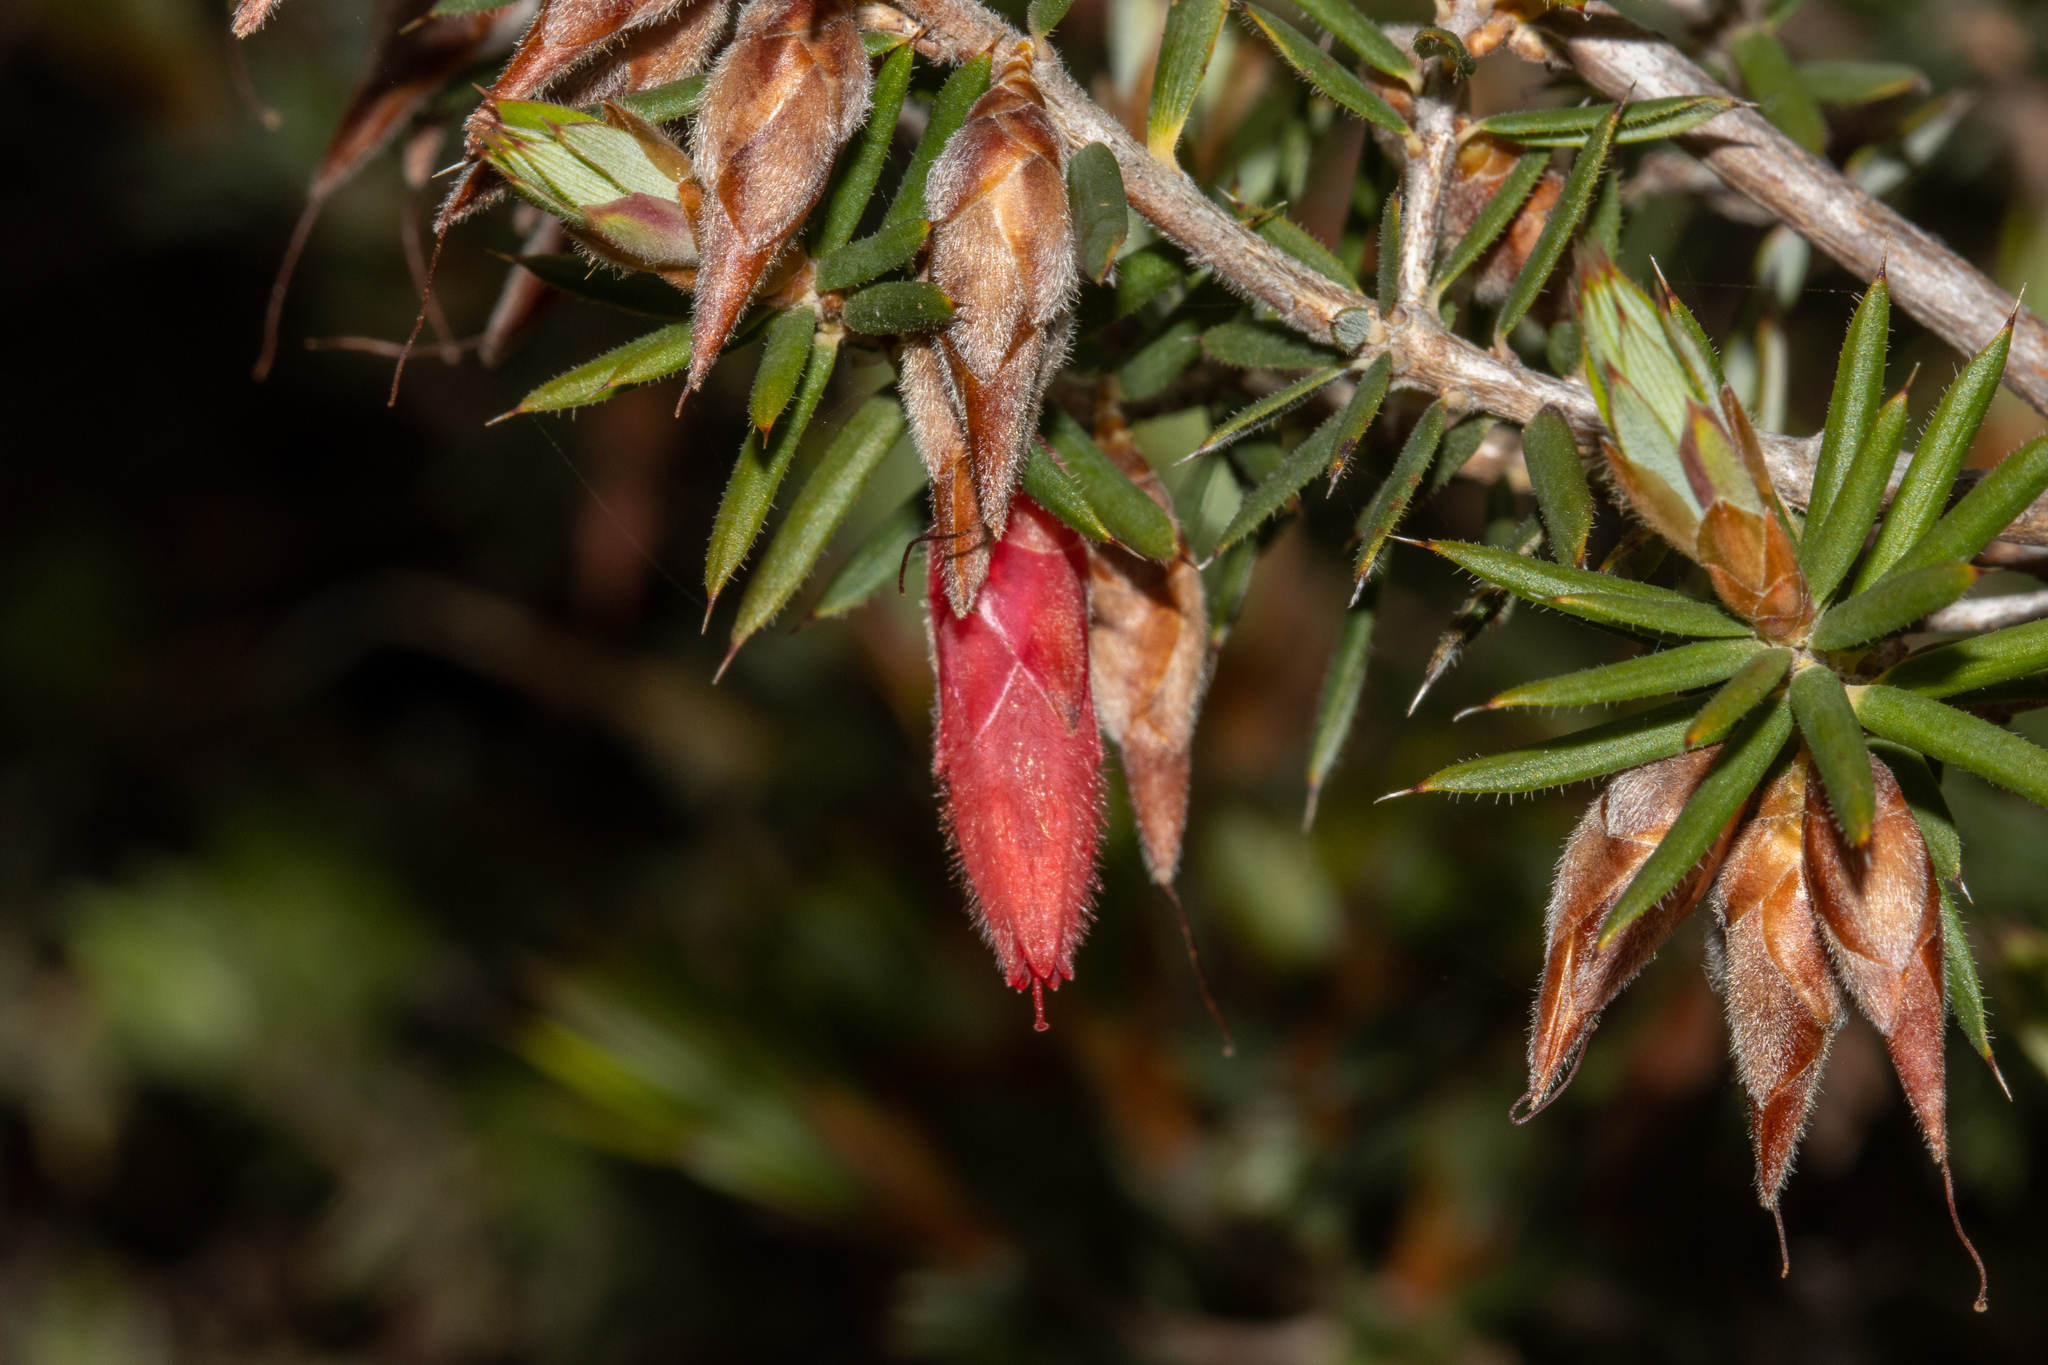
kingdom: Plantae
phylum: Tracheophyta
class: Magnoliopsida
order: Ericales
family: Ericaceae
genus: Stenanthera
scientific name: Stenanthera conostephioides
